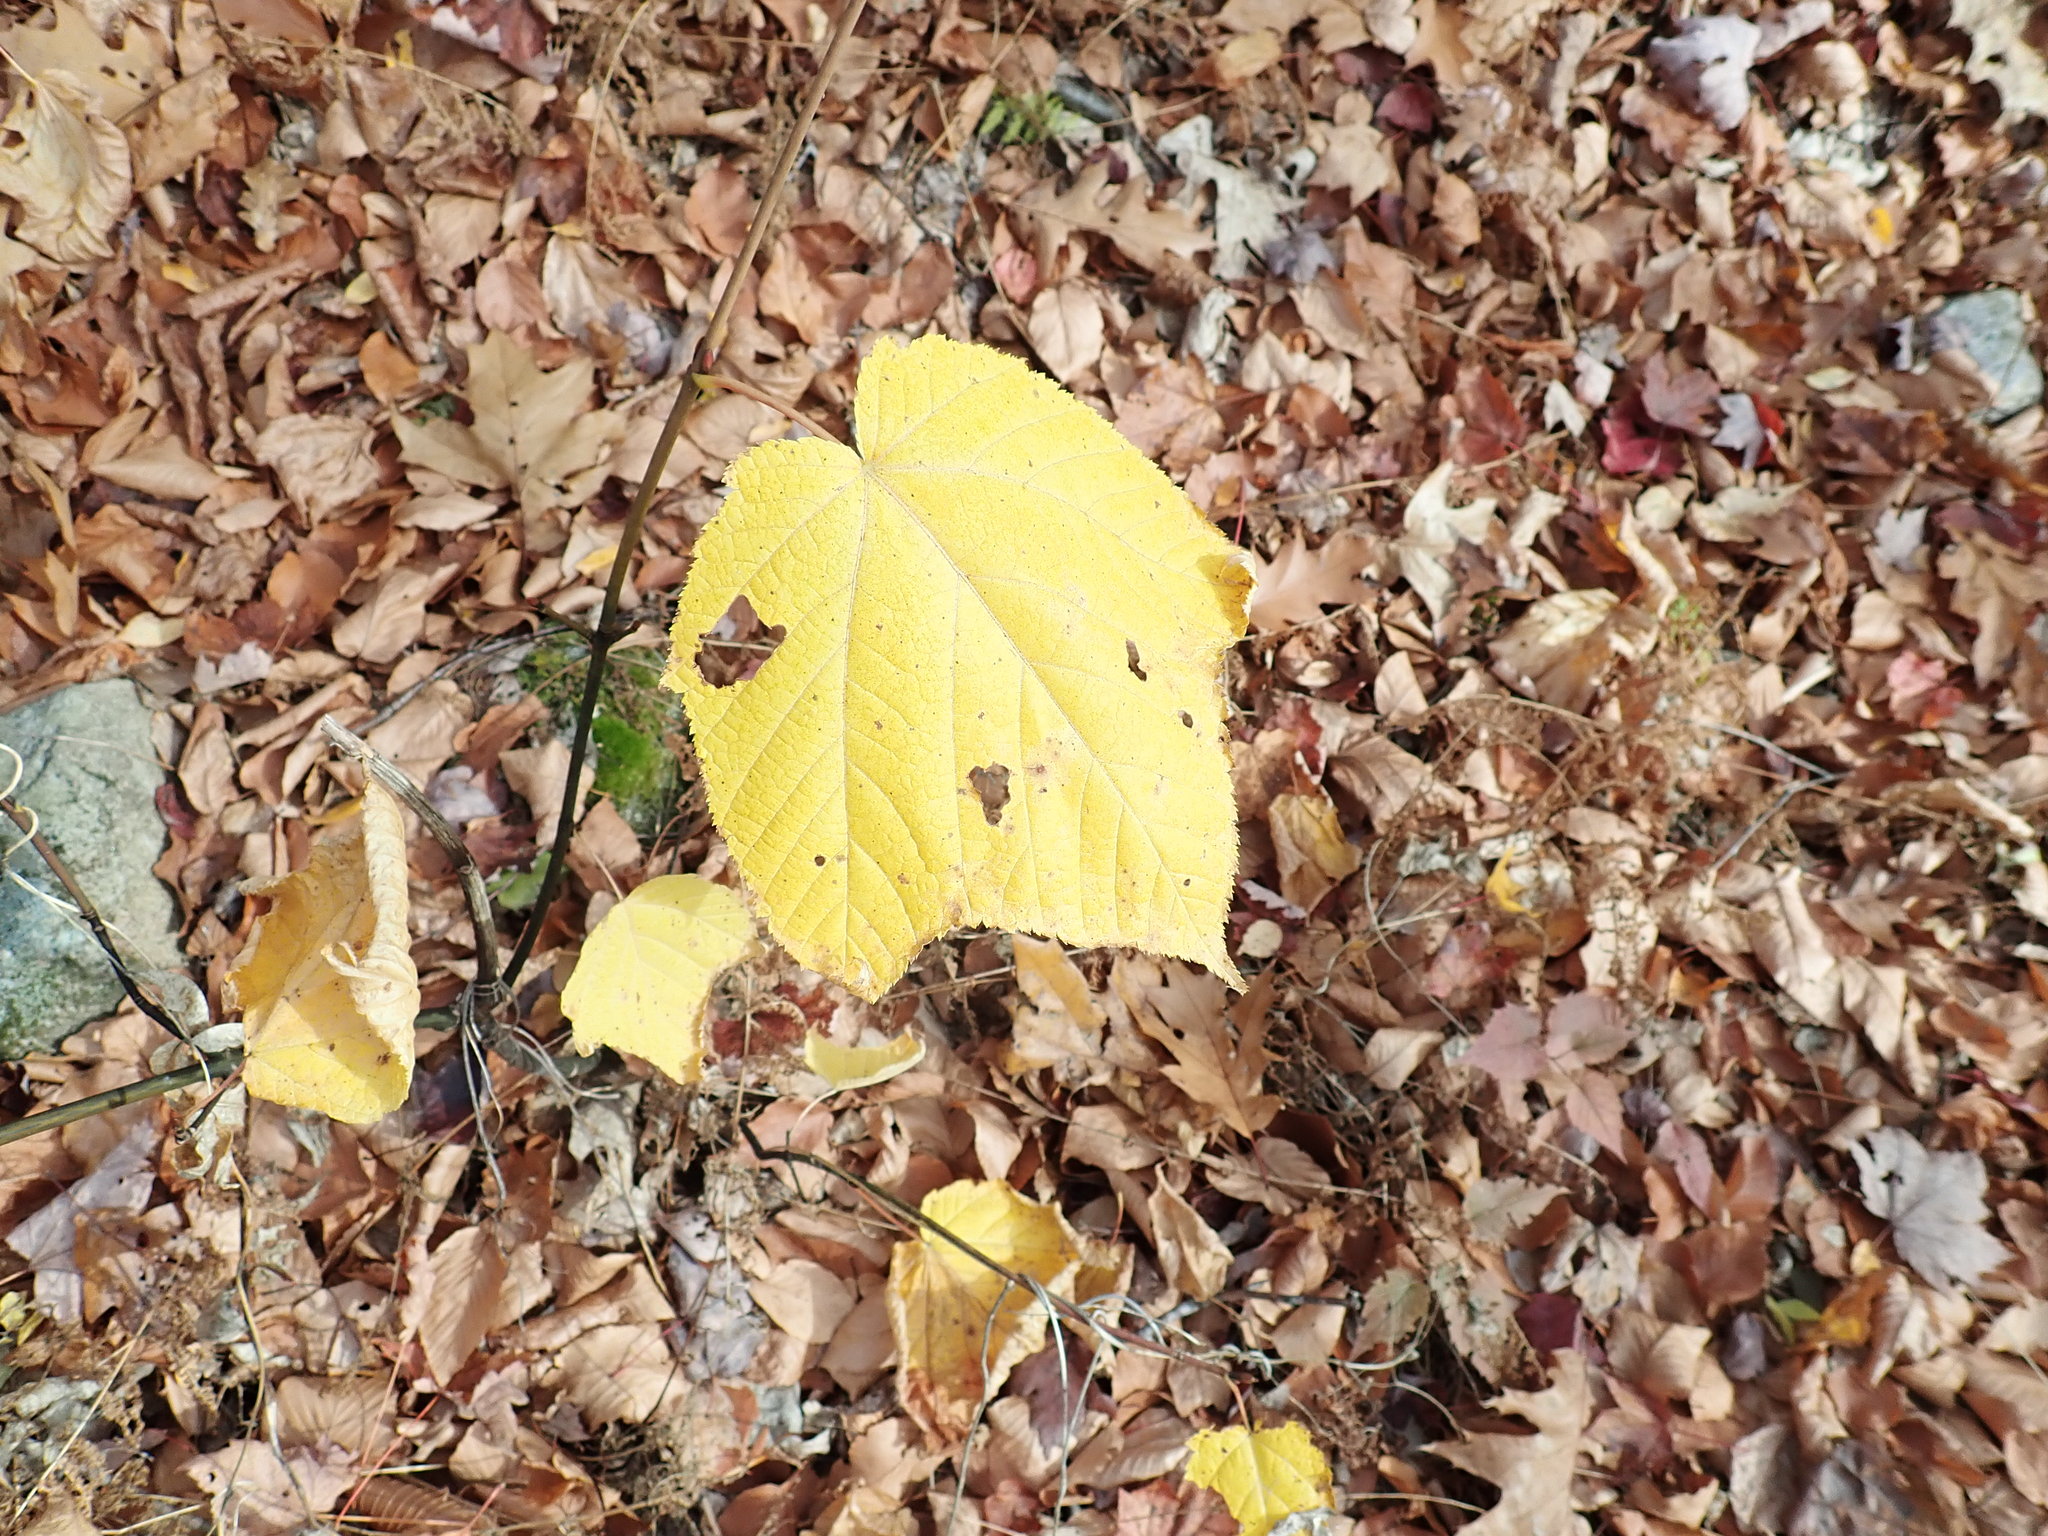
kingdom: Plantae
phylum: Tracheophyta
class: Magnoliopsida
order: Sapindales
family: Sapindaceae
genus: Acer
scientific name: Acer pensylvanicum
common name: Moosewood
